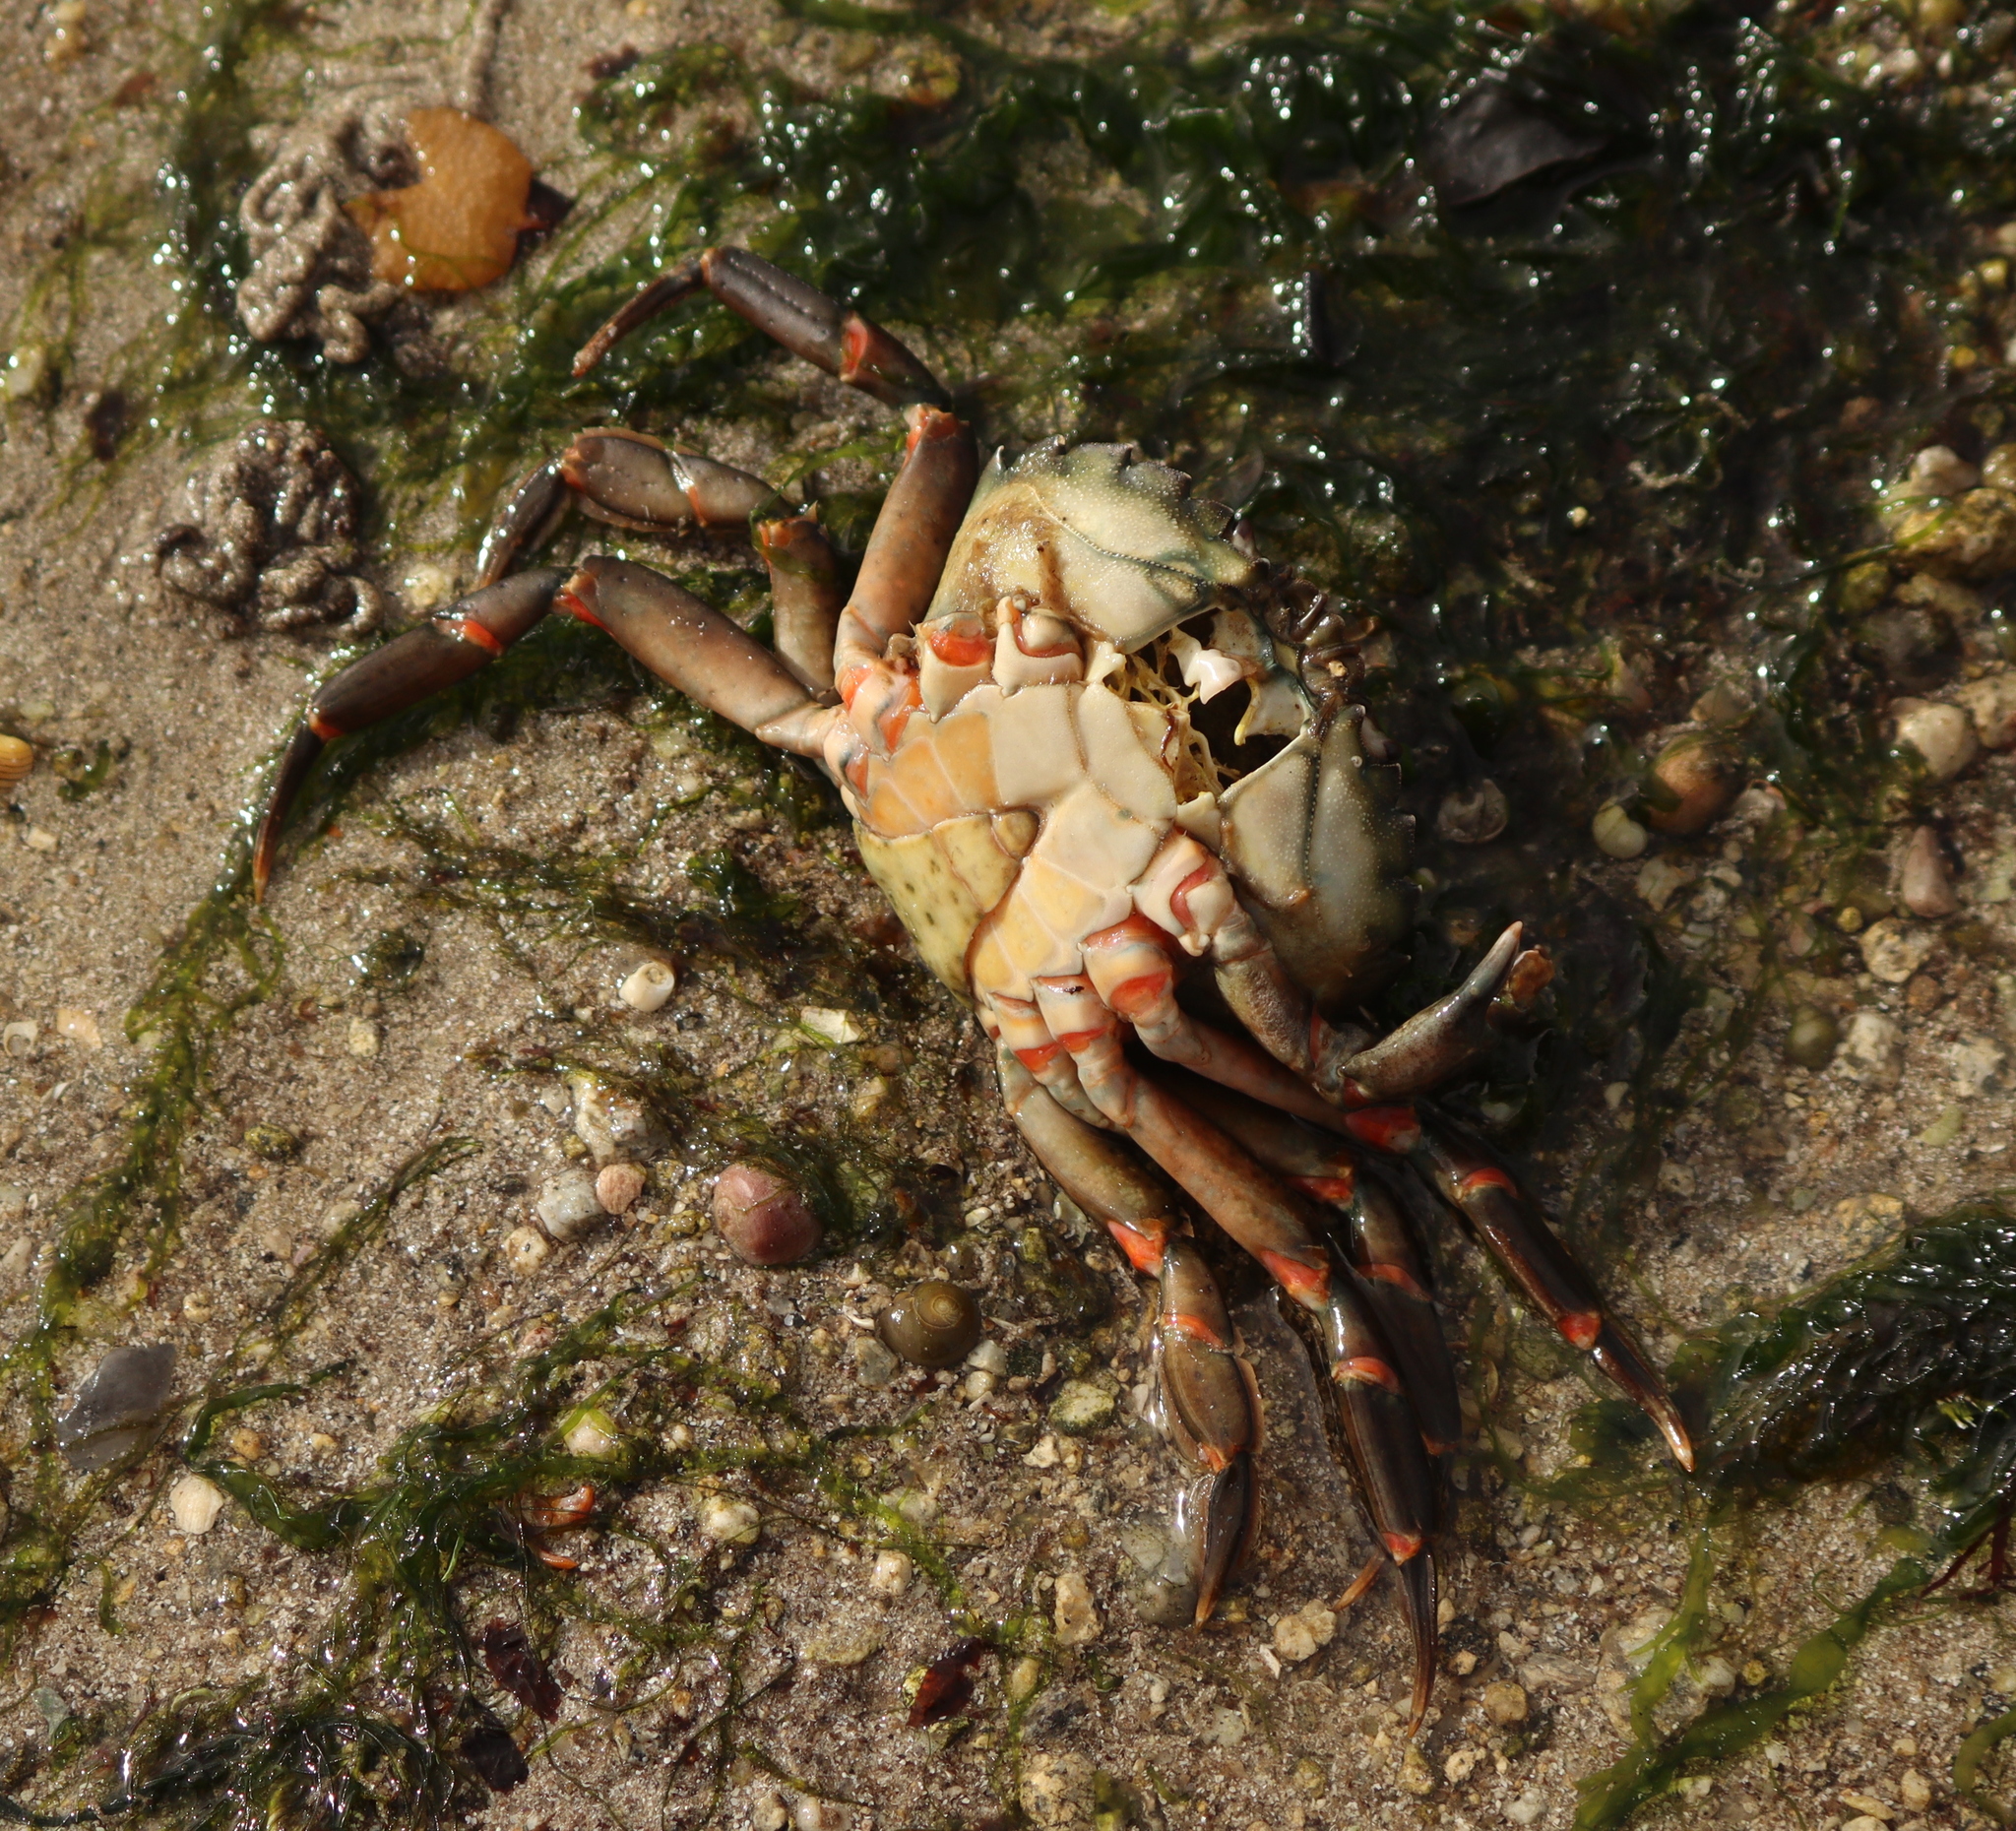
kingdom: Animalia
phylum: Arthropoda
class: Malacostraca
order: Decapoda
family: Carcinidae
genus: Carcinus
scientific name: Carcinus maenas
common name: European green crab
